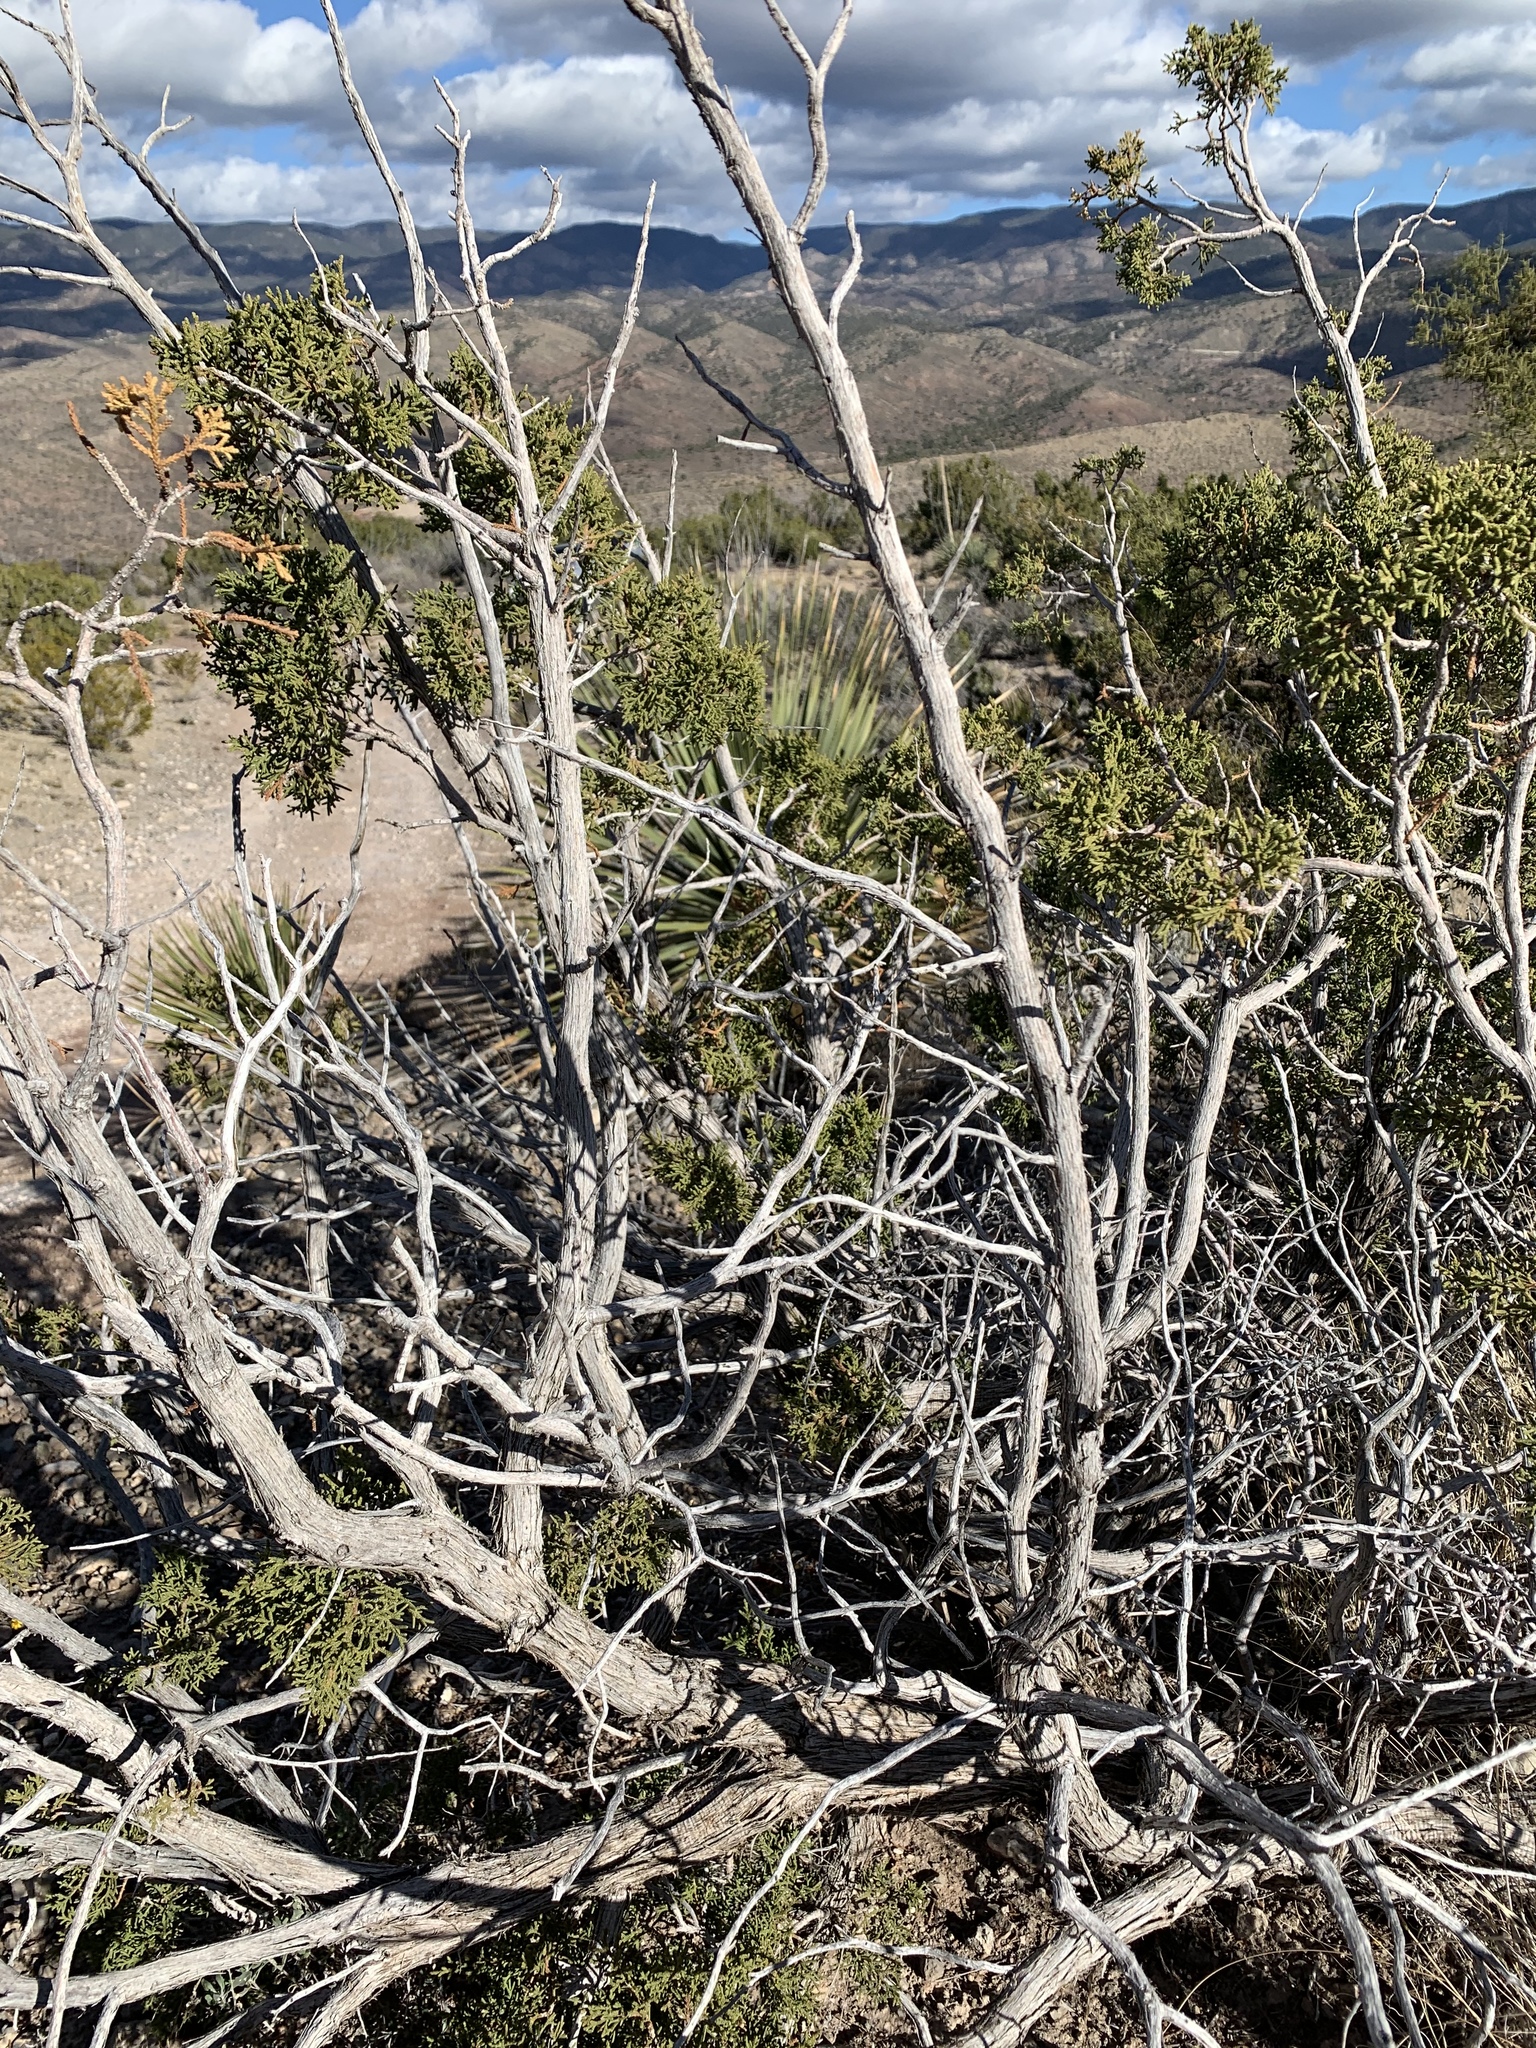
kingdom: Plantae
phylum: Tracheophyta
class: Pinopsida
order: Pinales
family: Cupressaceae
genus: Juniperus
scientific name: Juniperus monosperma
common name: One-seed juniper
